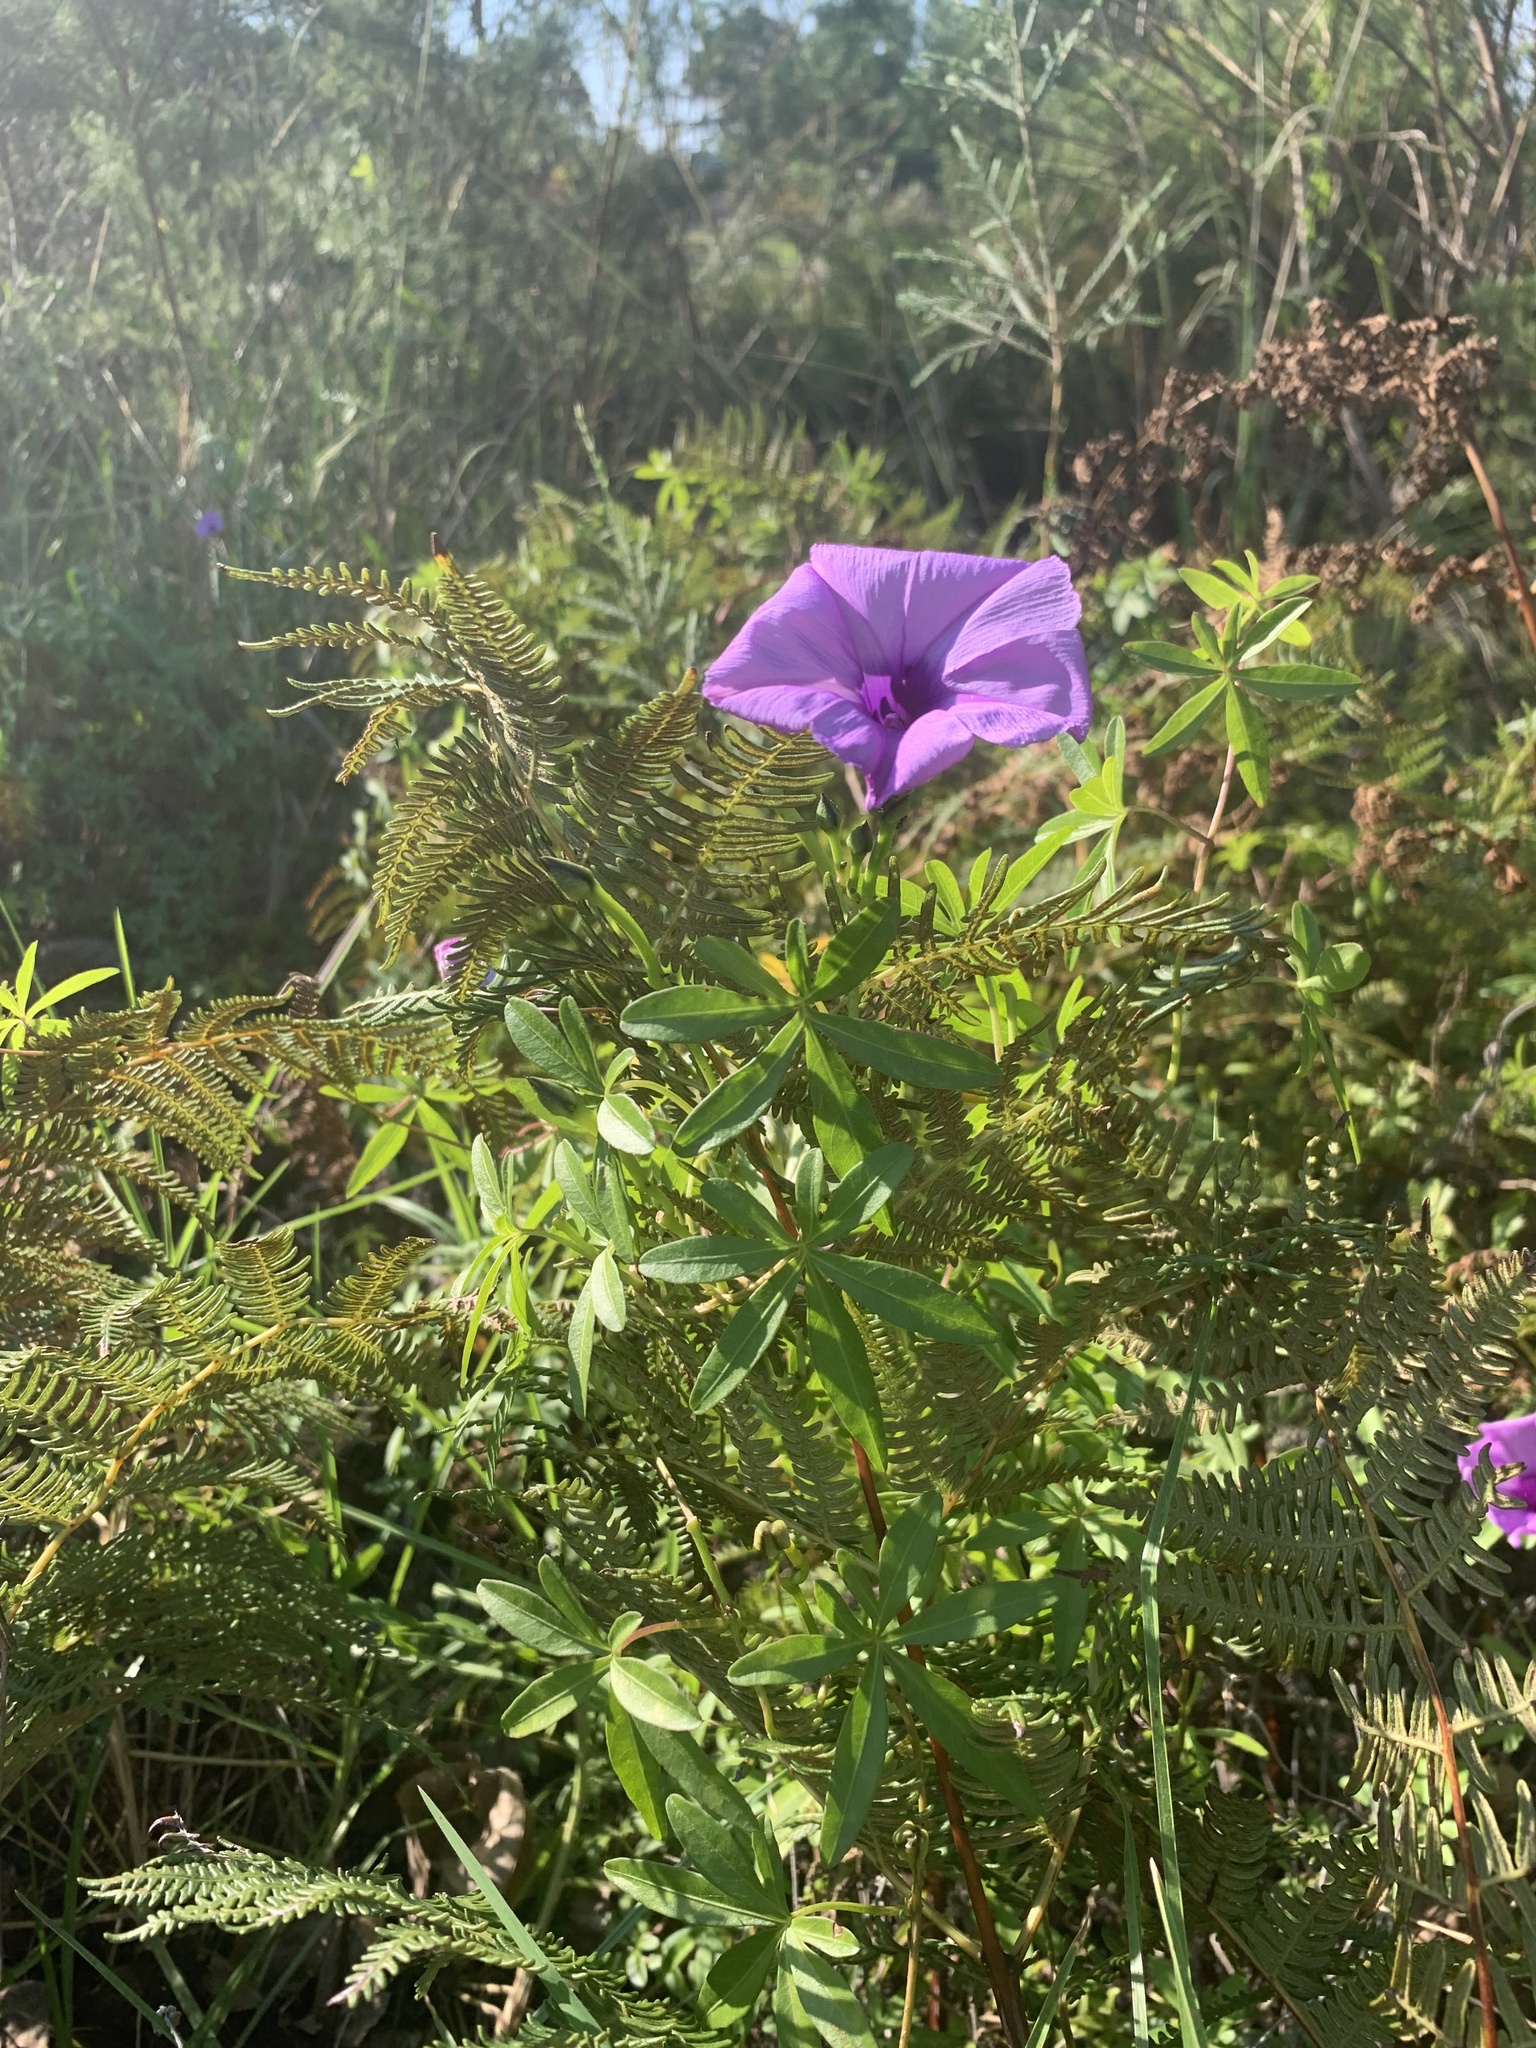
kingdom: Plantae
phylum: Tracheophyta
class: Magnoliopsida
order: Solanales
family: Convolvulaceae
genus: Ipomoea
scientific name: Ipomoea cairica
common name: Mile a minute vine
